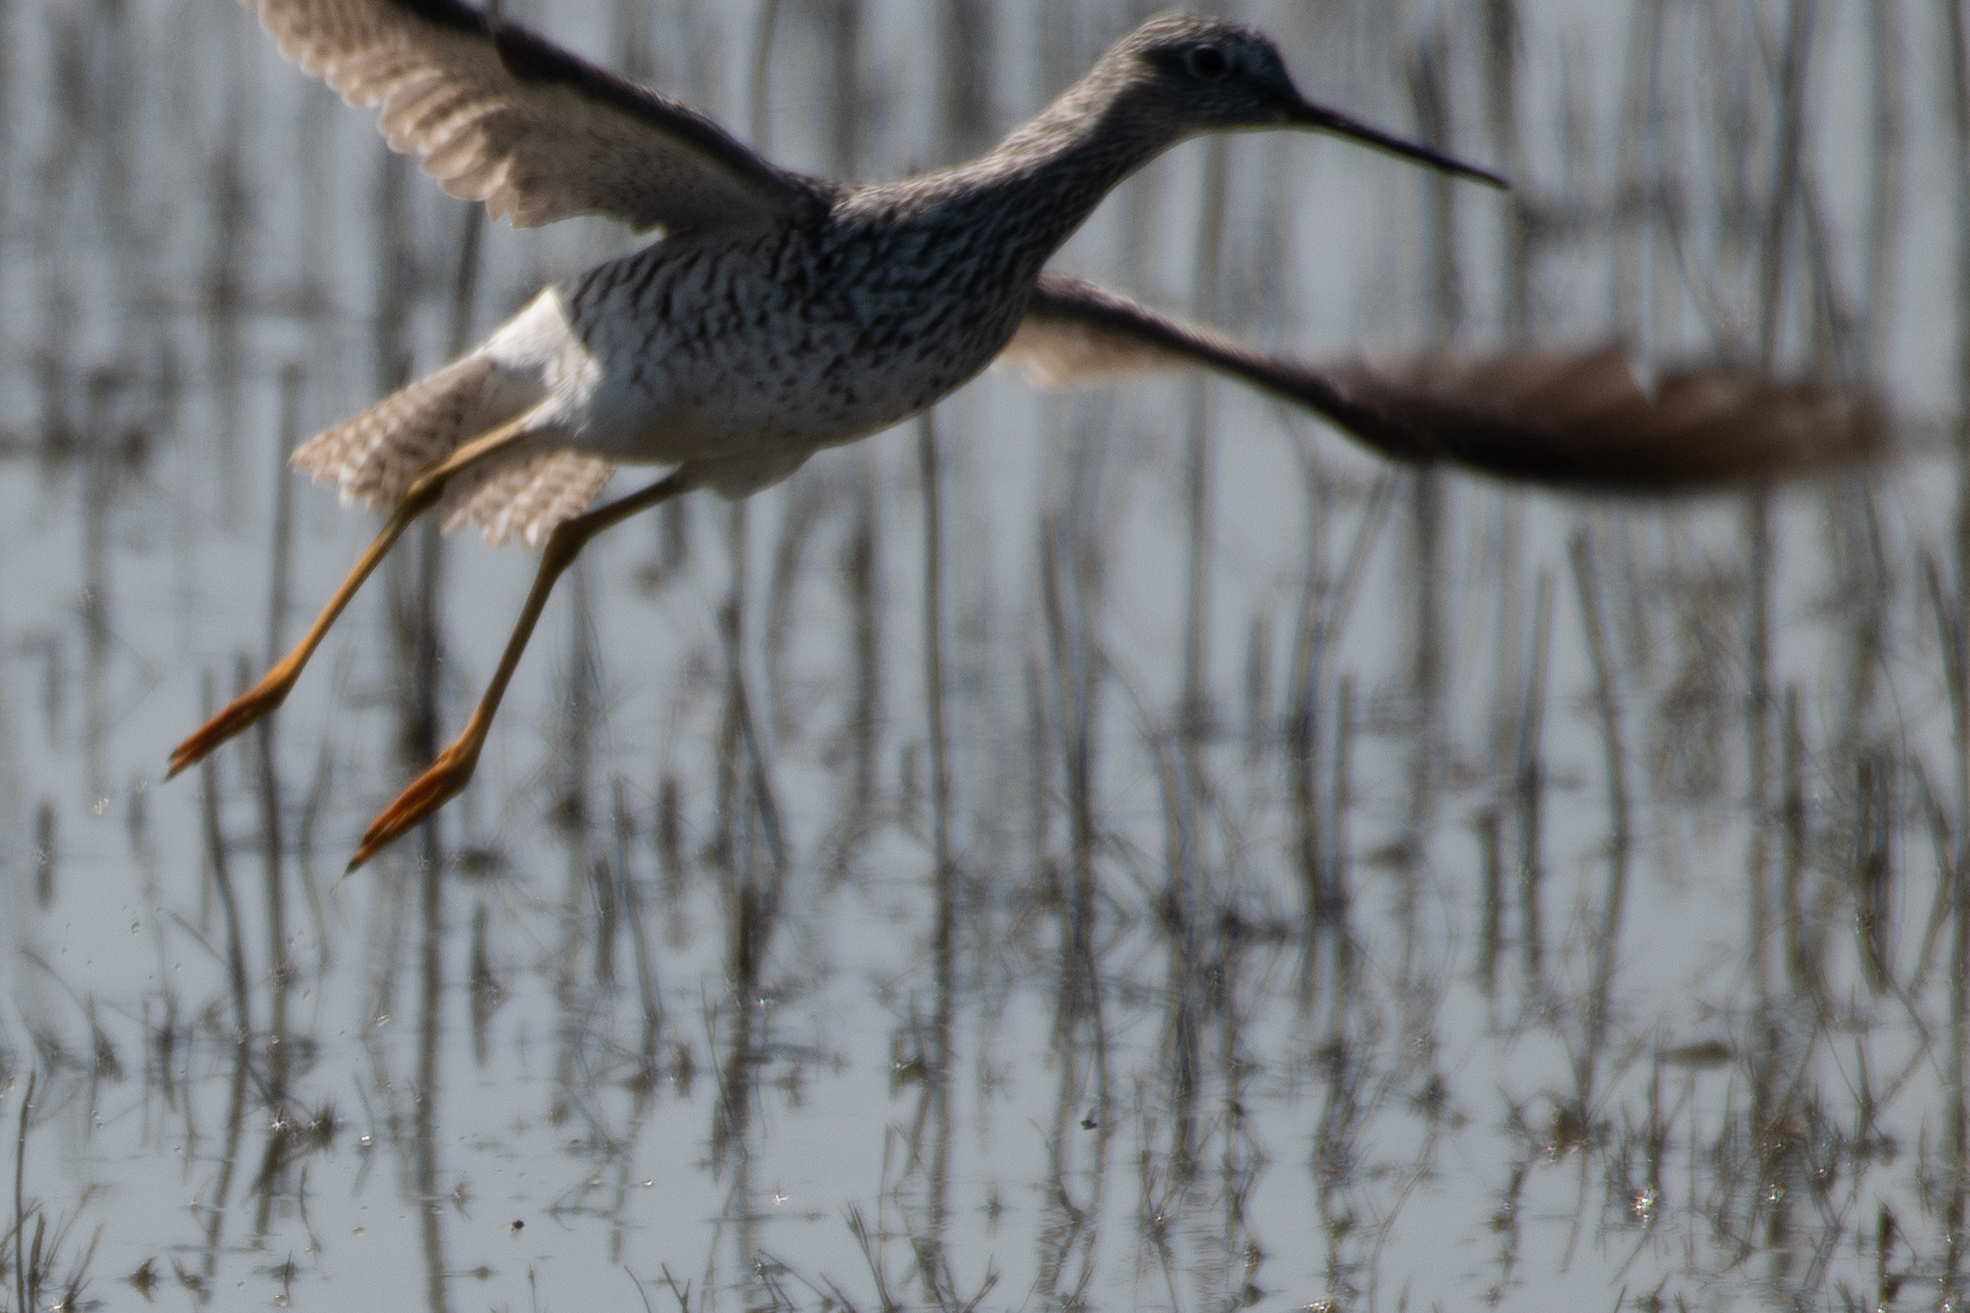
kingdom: Animalia
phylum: Chordata
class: Aves
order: Charadriiformes
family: Scolopacidae
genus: Tringa
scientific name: Tringa melanoleuca
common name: Greater yellowlegs
